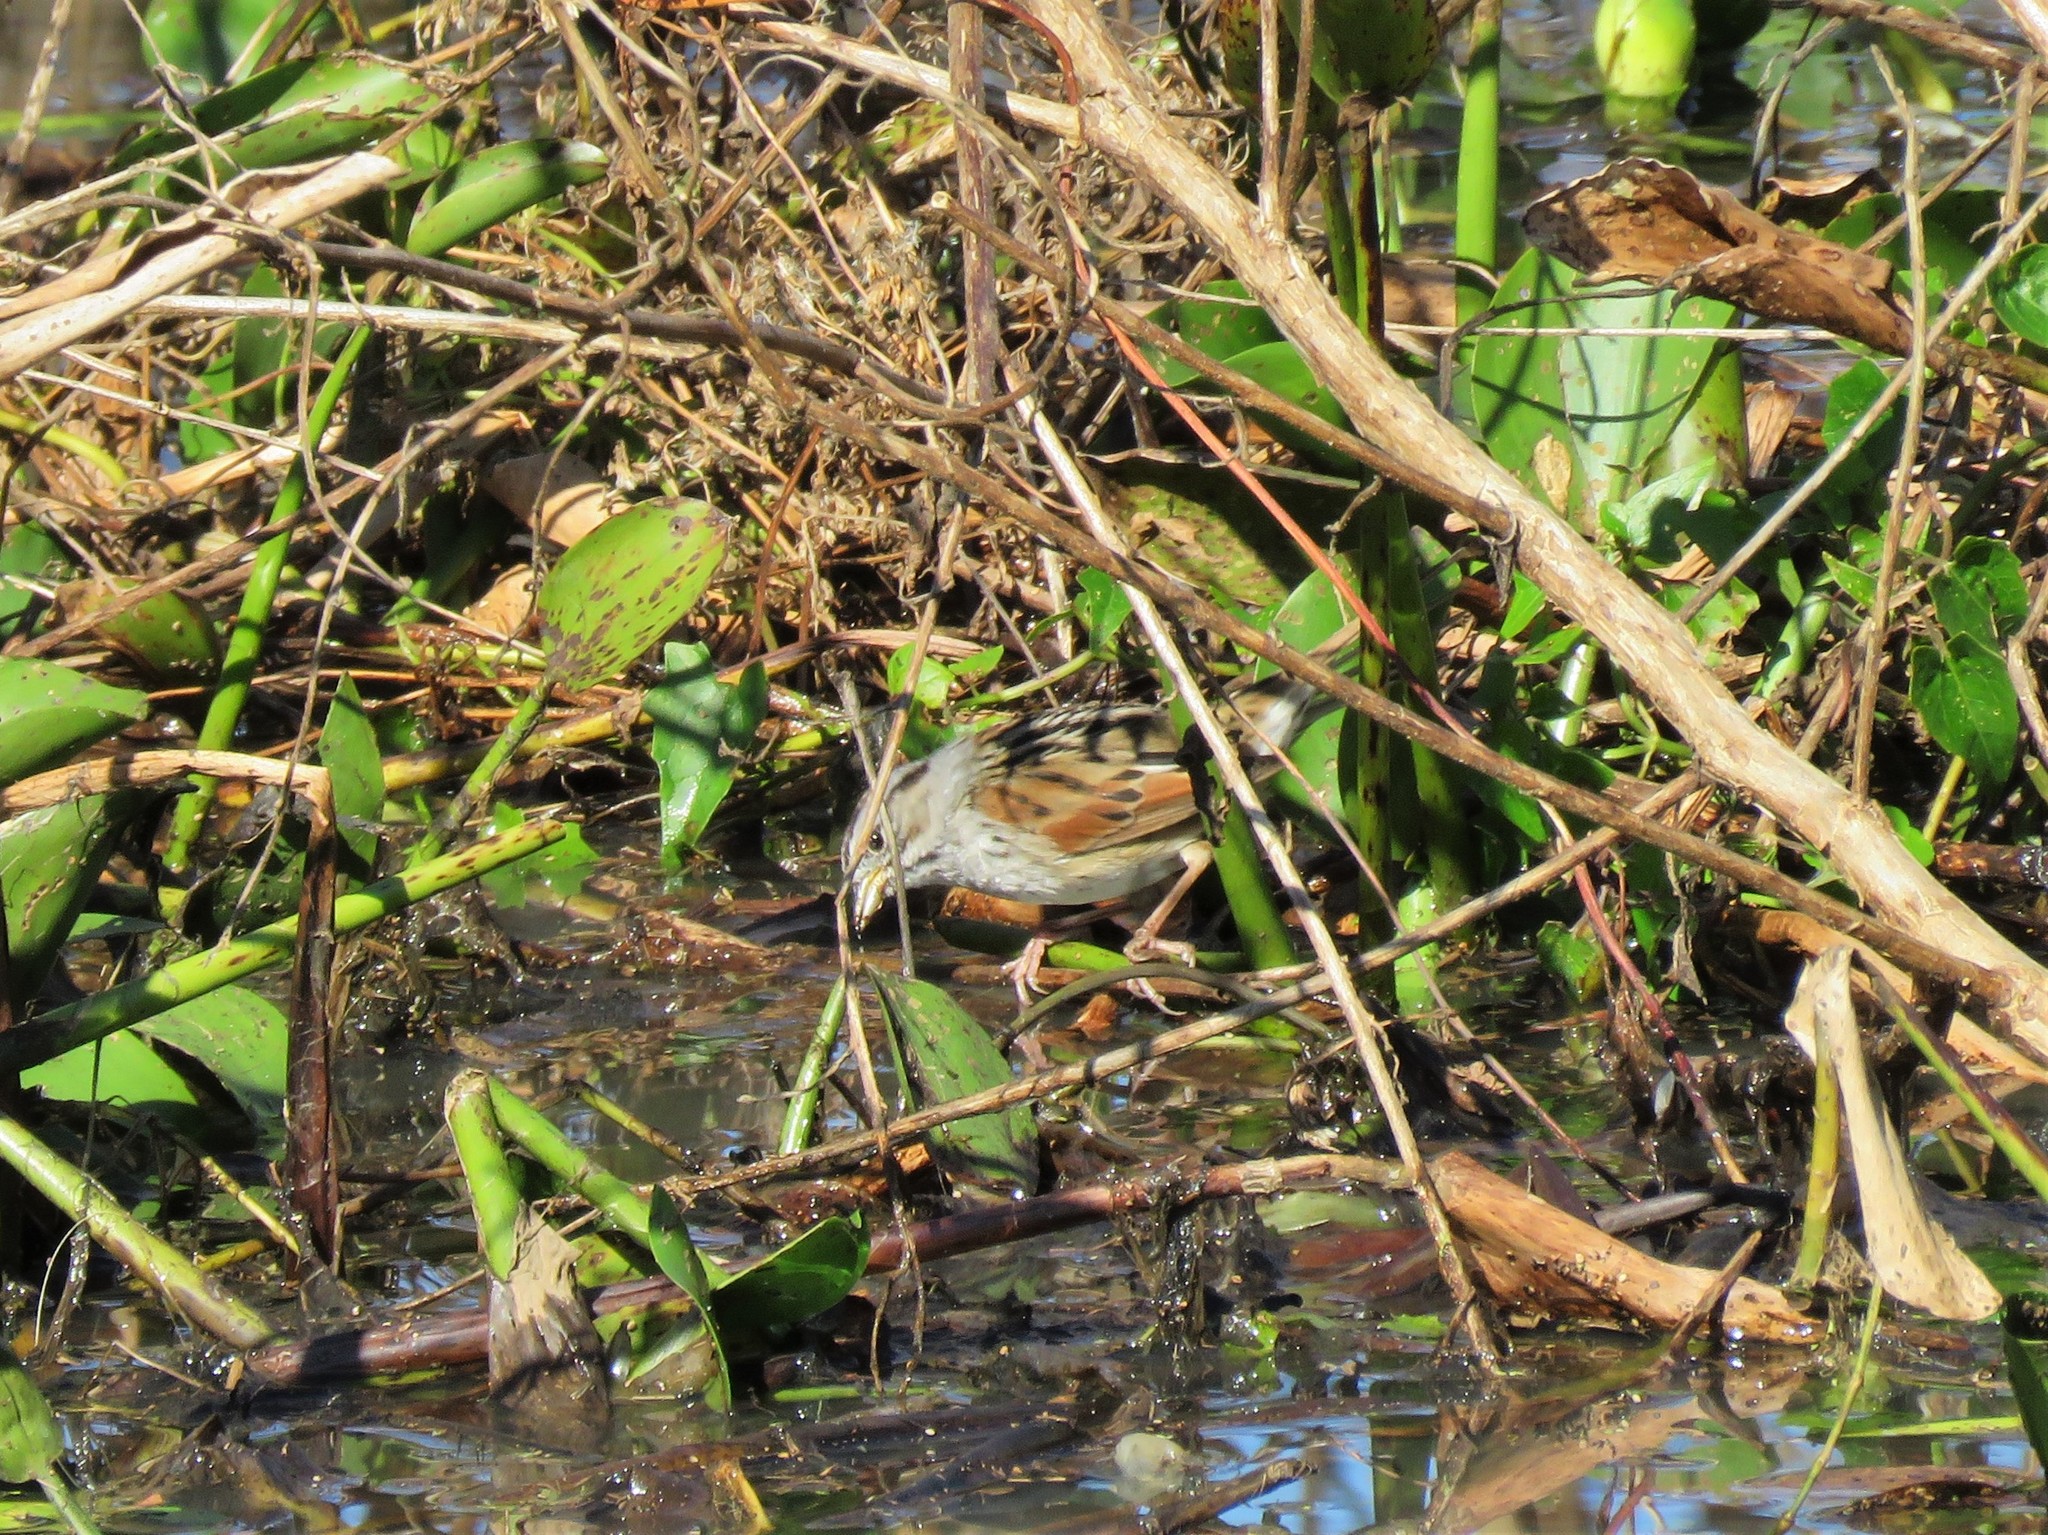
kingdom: Animalia
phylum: Chordata
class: Aves
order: Passeriformes
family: Passerellidae
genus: Melospiza
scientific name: Melospiza georgiana
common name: Swamp sparrow
